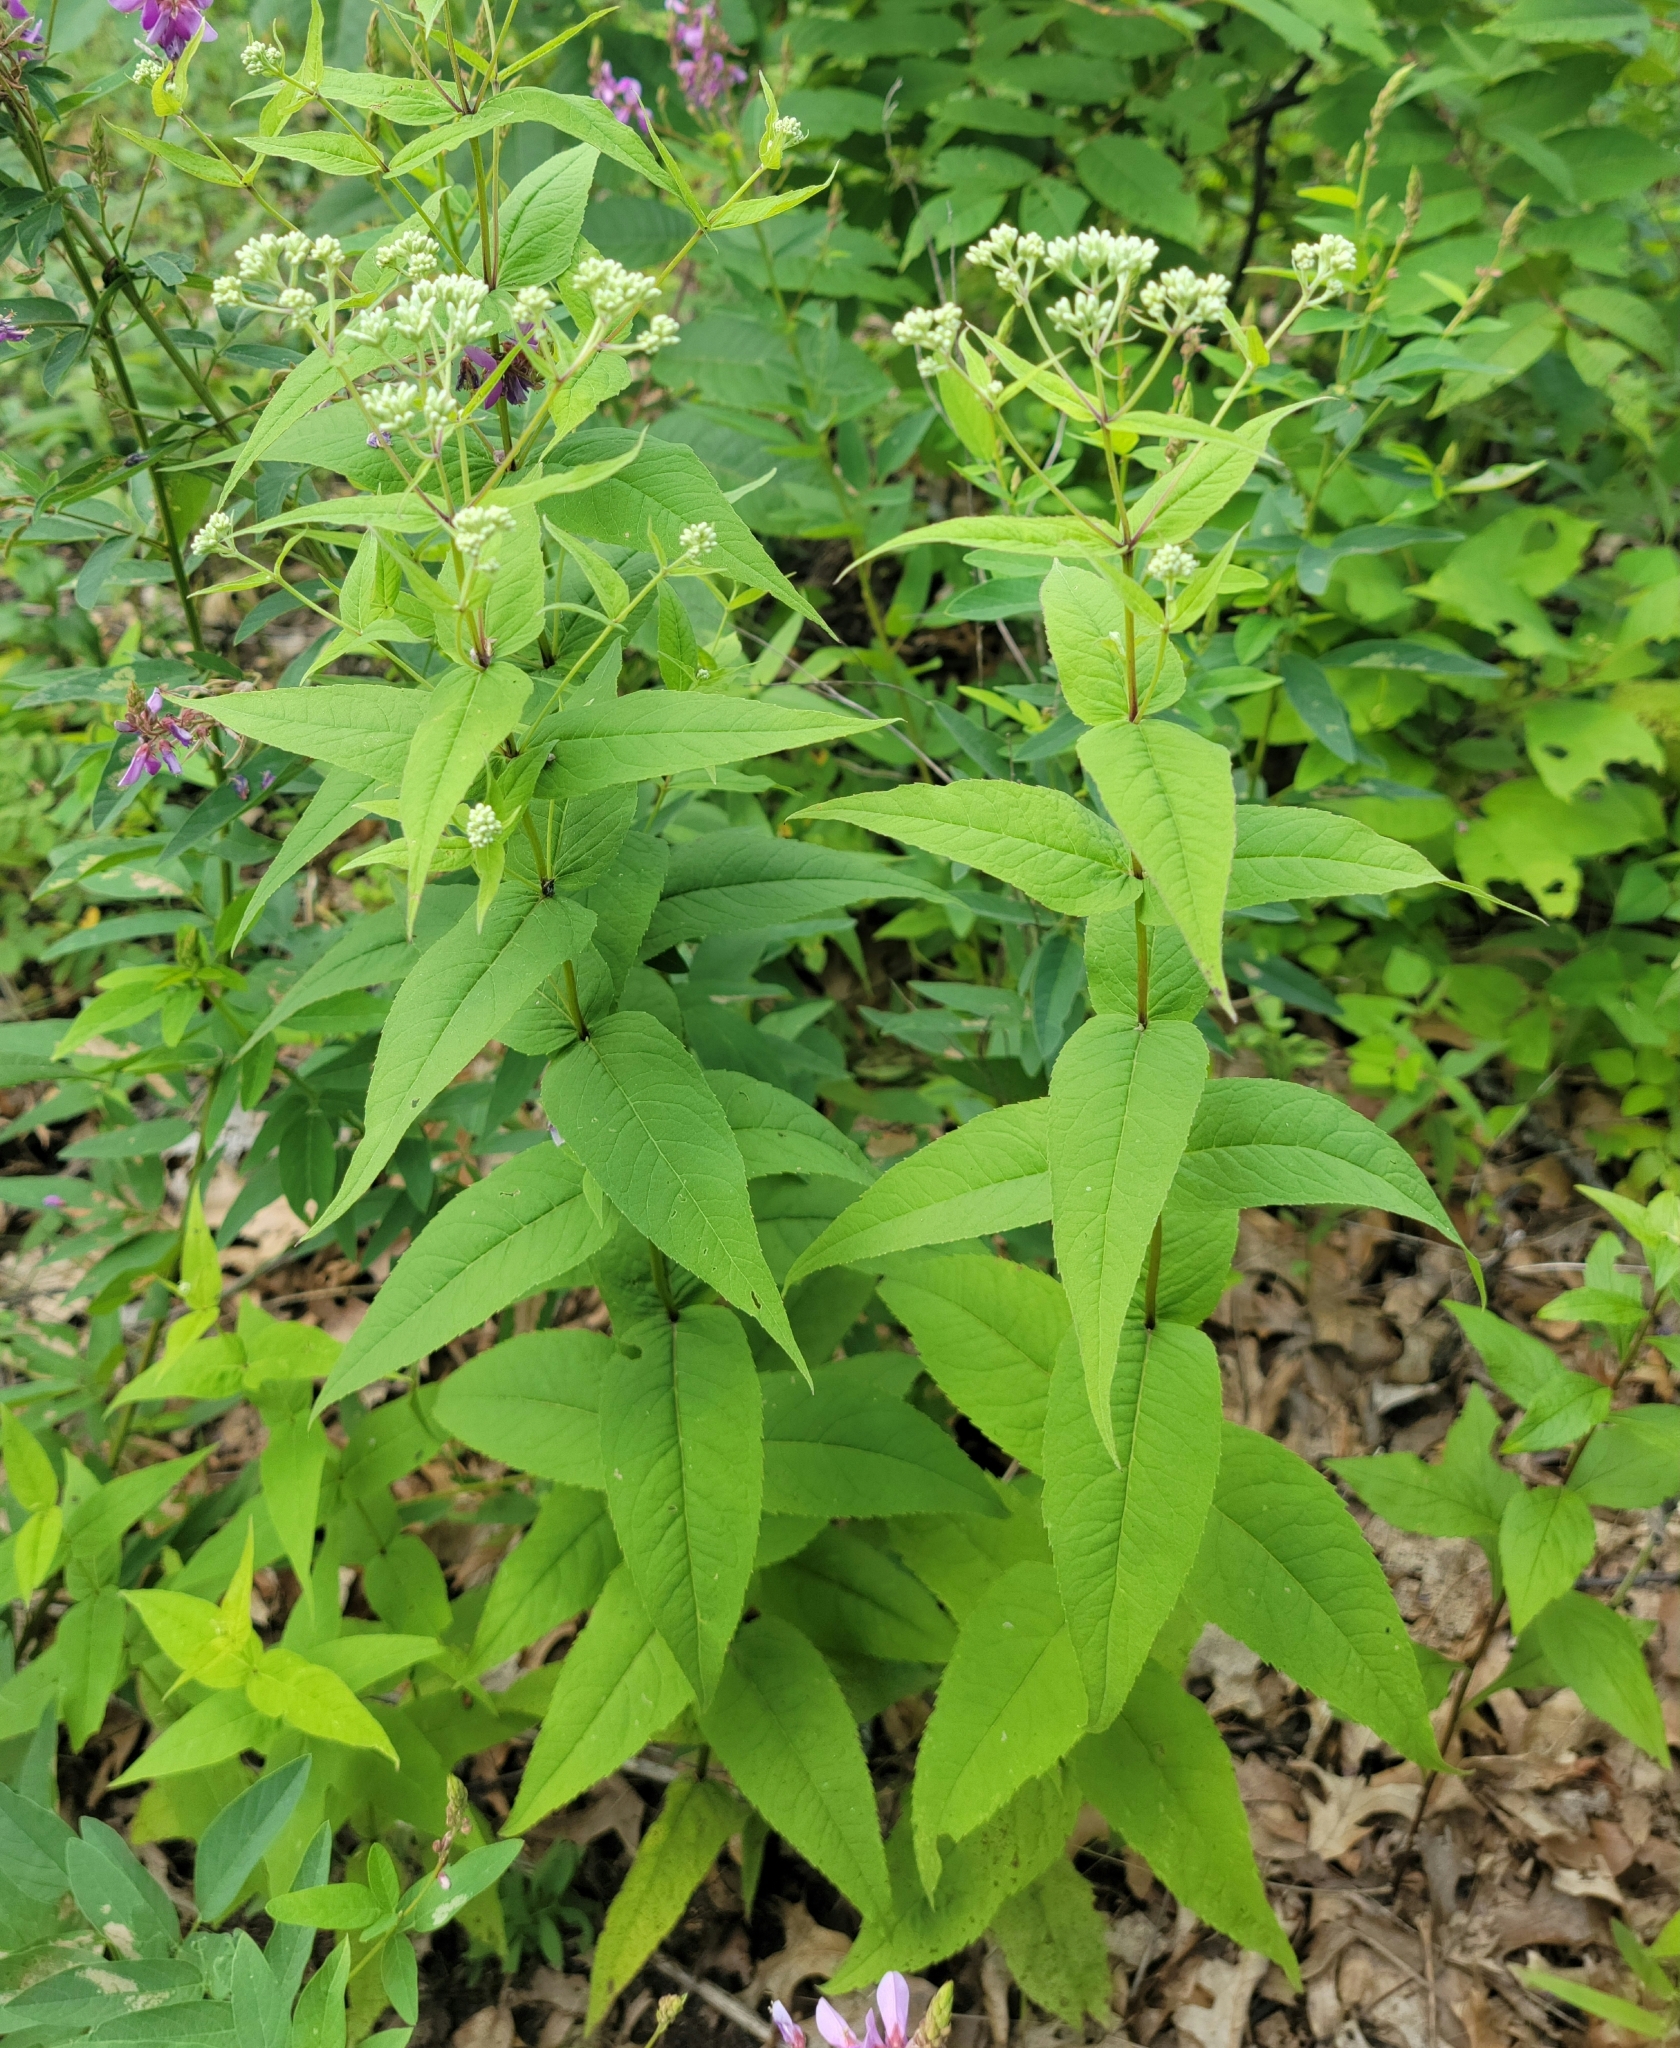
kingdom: Plantae
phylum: Tracheophyta
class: Magnoliopsida
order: Asterales
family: Asteraceae
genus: Eupatorium
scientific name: Eupatorium sessilifolium
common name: Upland boneset
